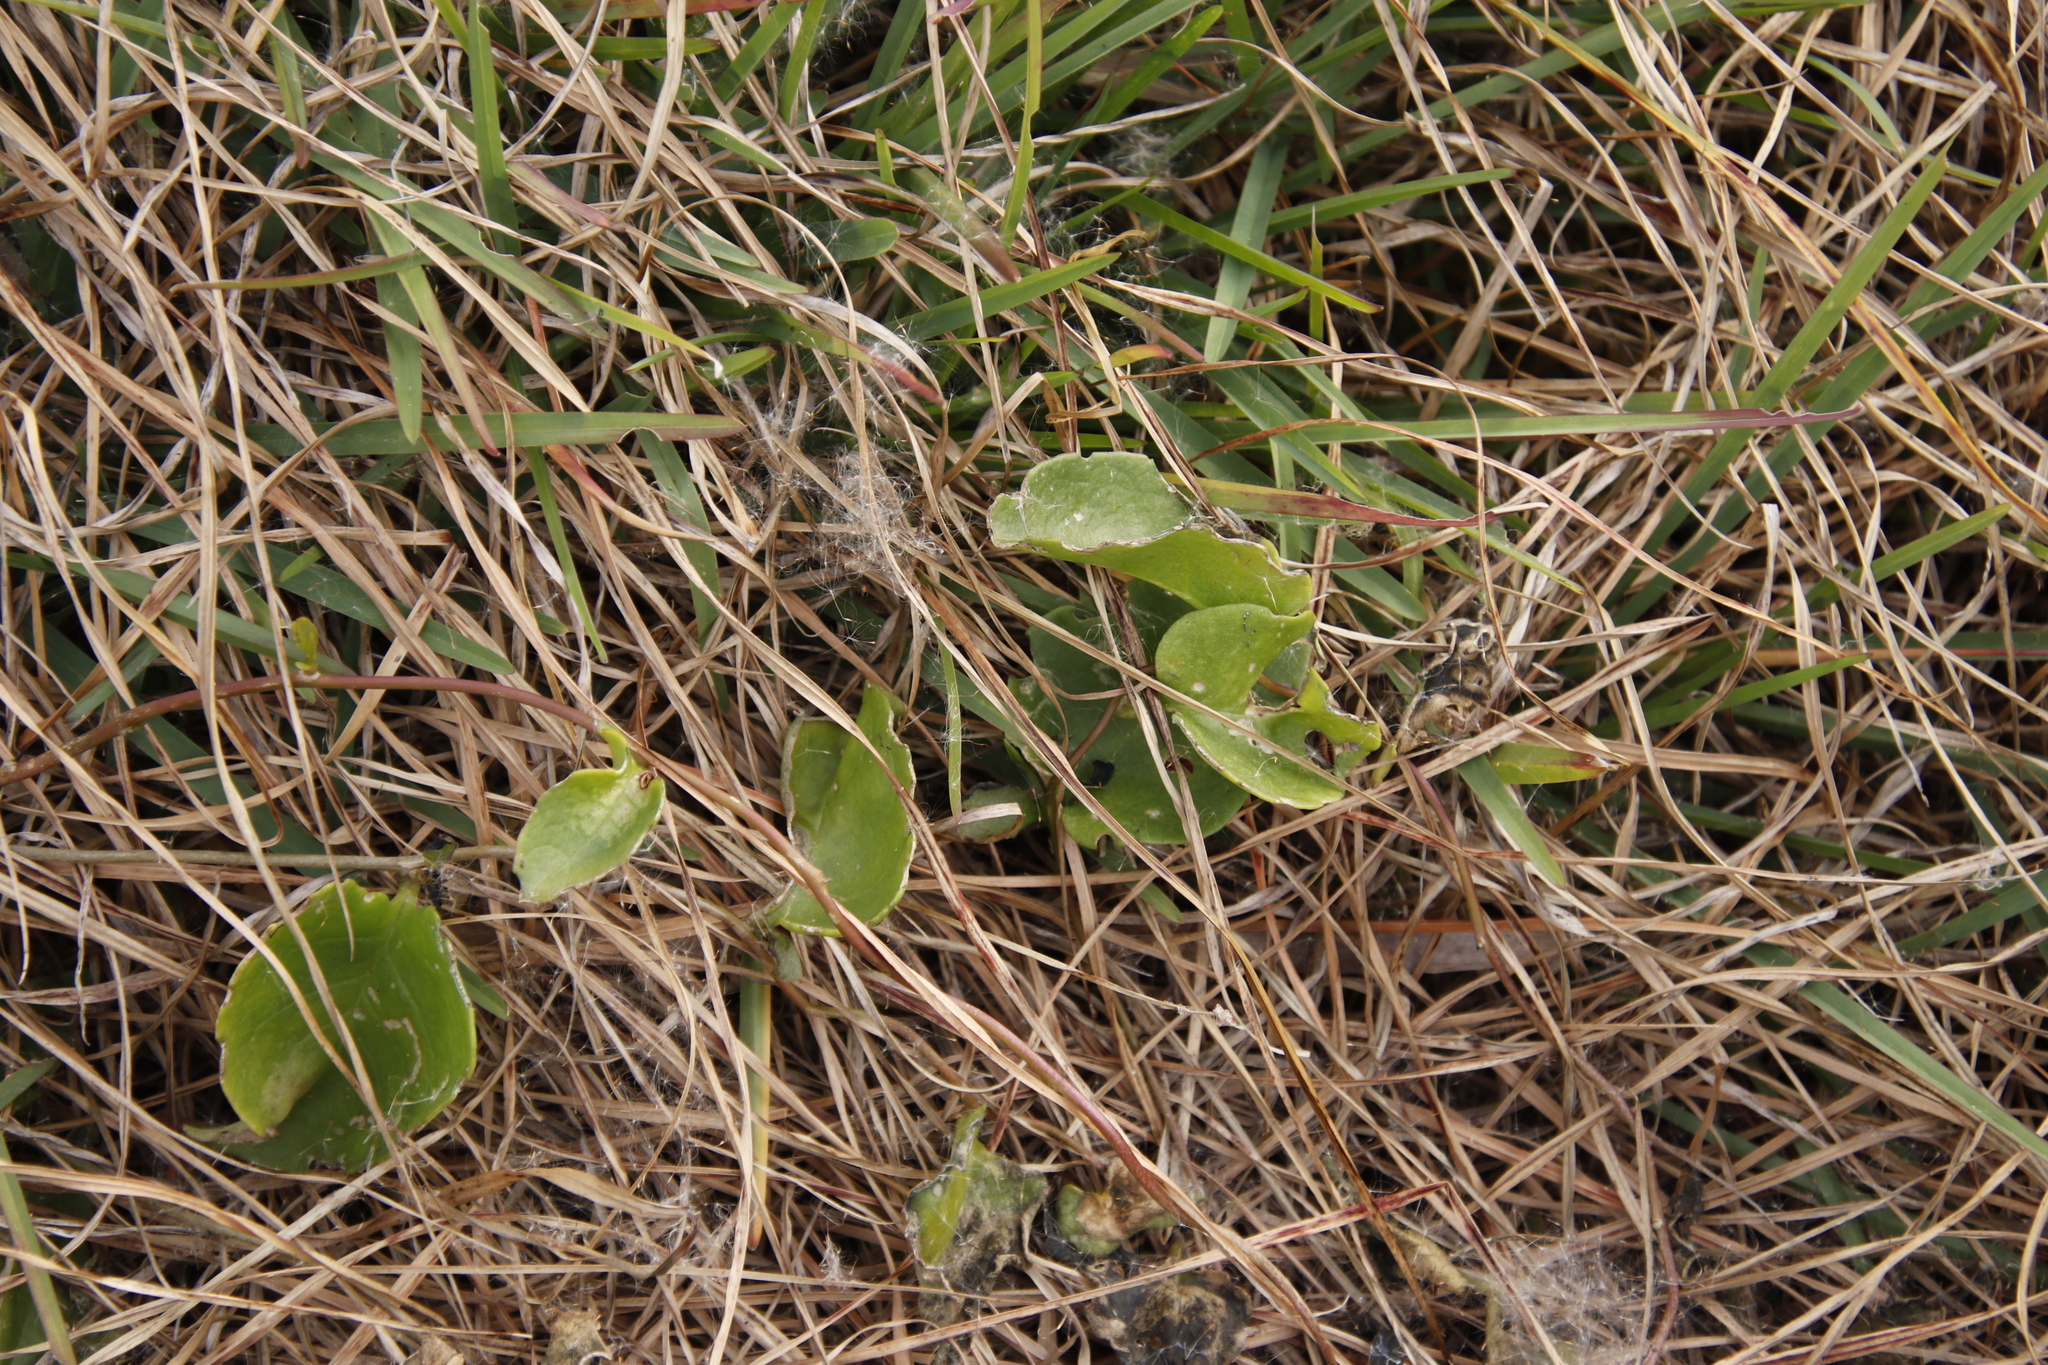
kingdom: Plantae
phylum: Tracheophyta
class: Magnoliopsida
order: Caryophyllales
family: Basellaceae
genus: Anredera
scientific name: Anredera cordifolia
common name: Heartleaf madeiravine
